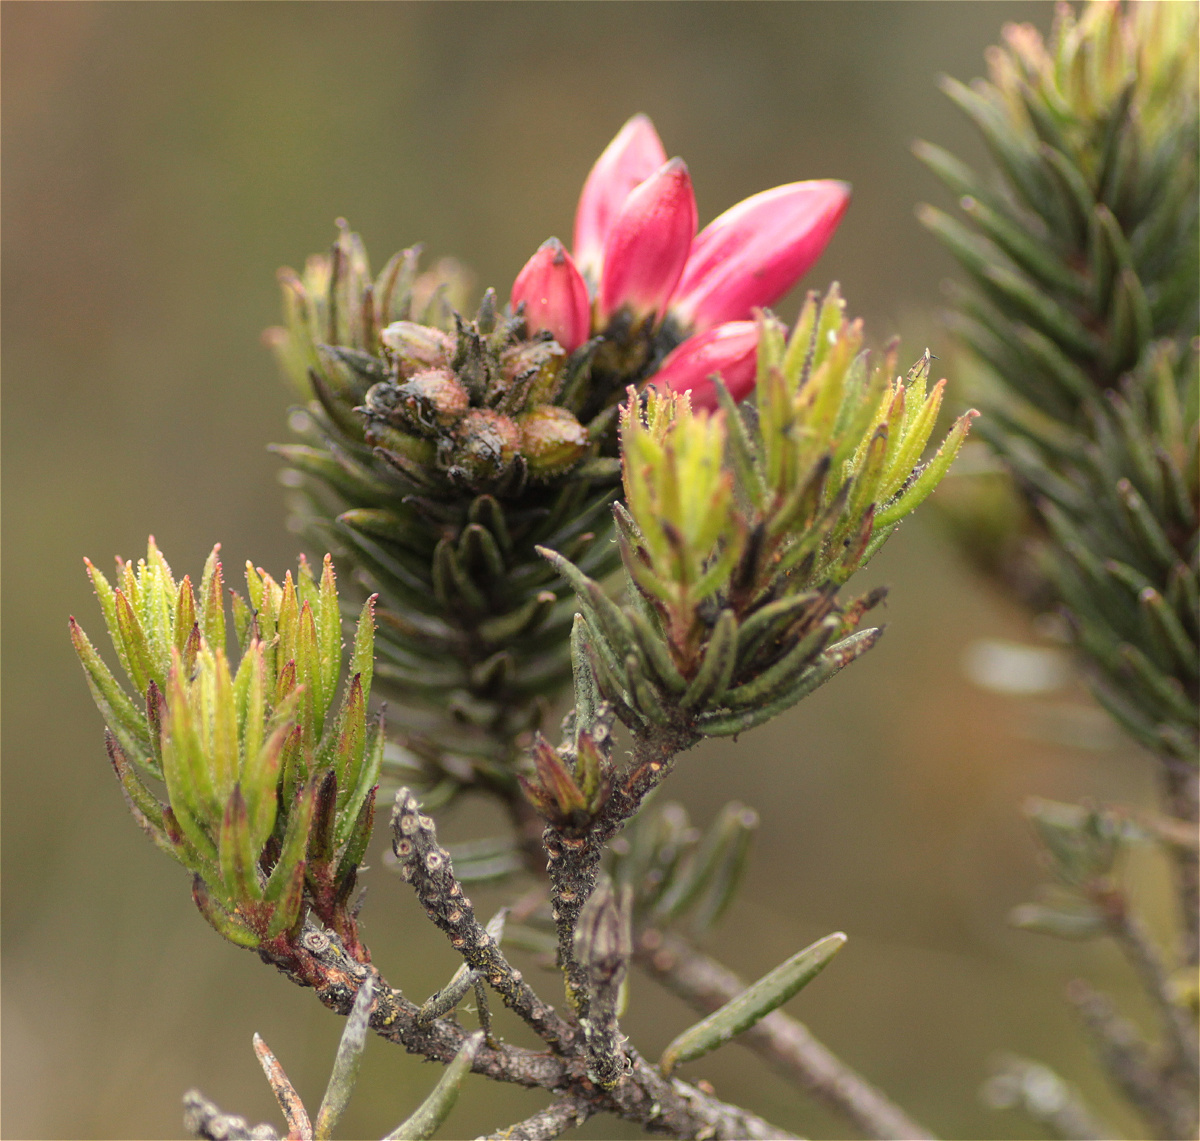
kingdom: Plantae
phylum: Tracheophyta
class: Magnoliopsida
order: Ericales
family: Ericaceae
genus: Bejaria
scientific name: Bejaria resinosa
